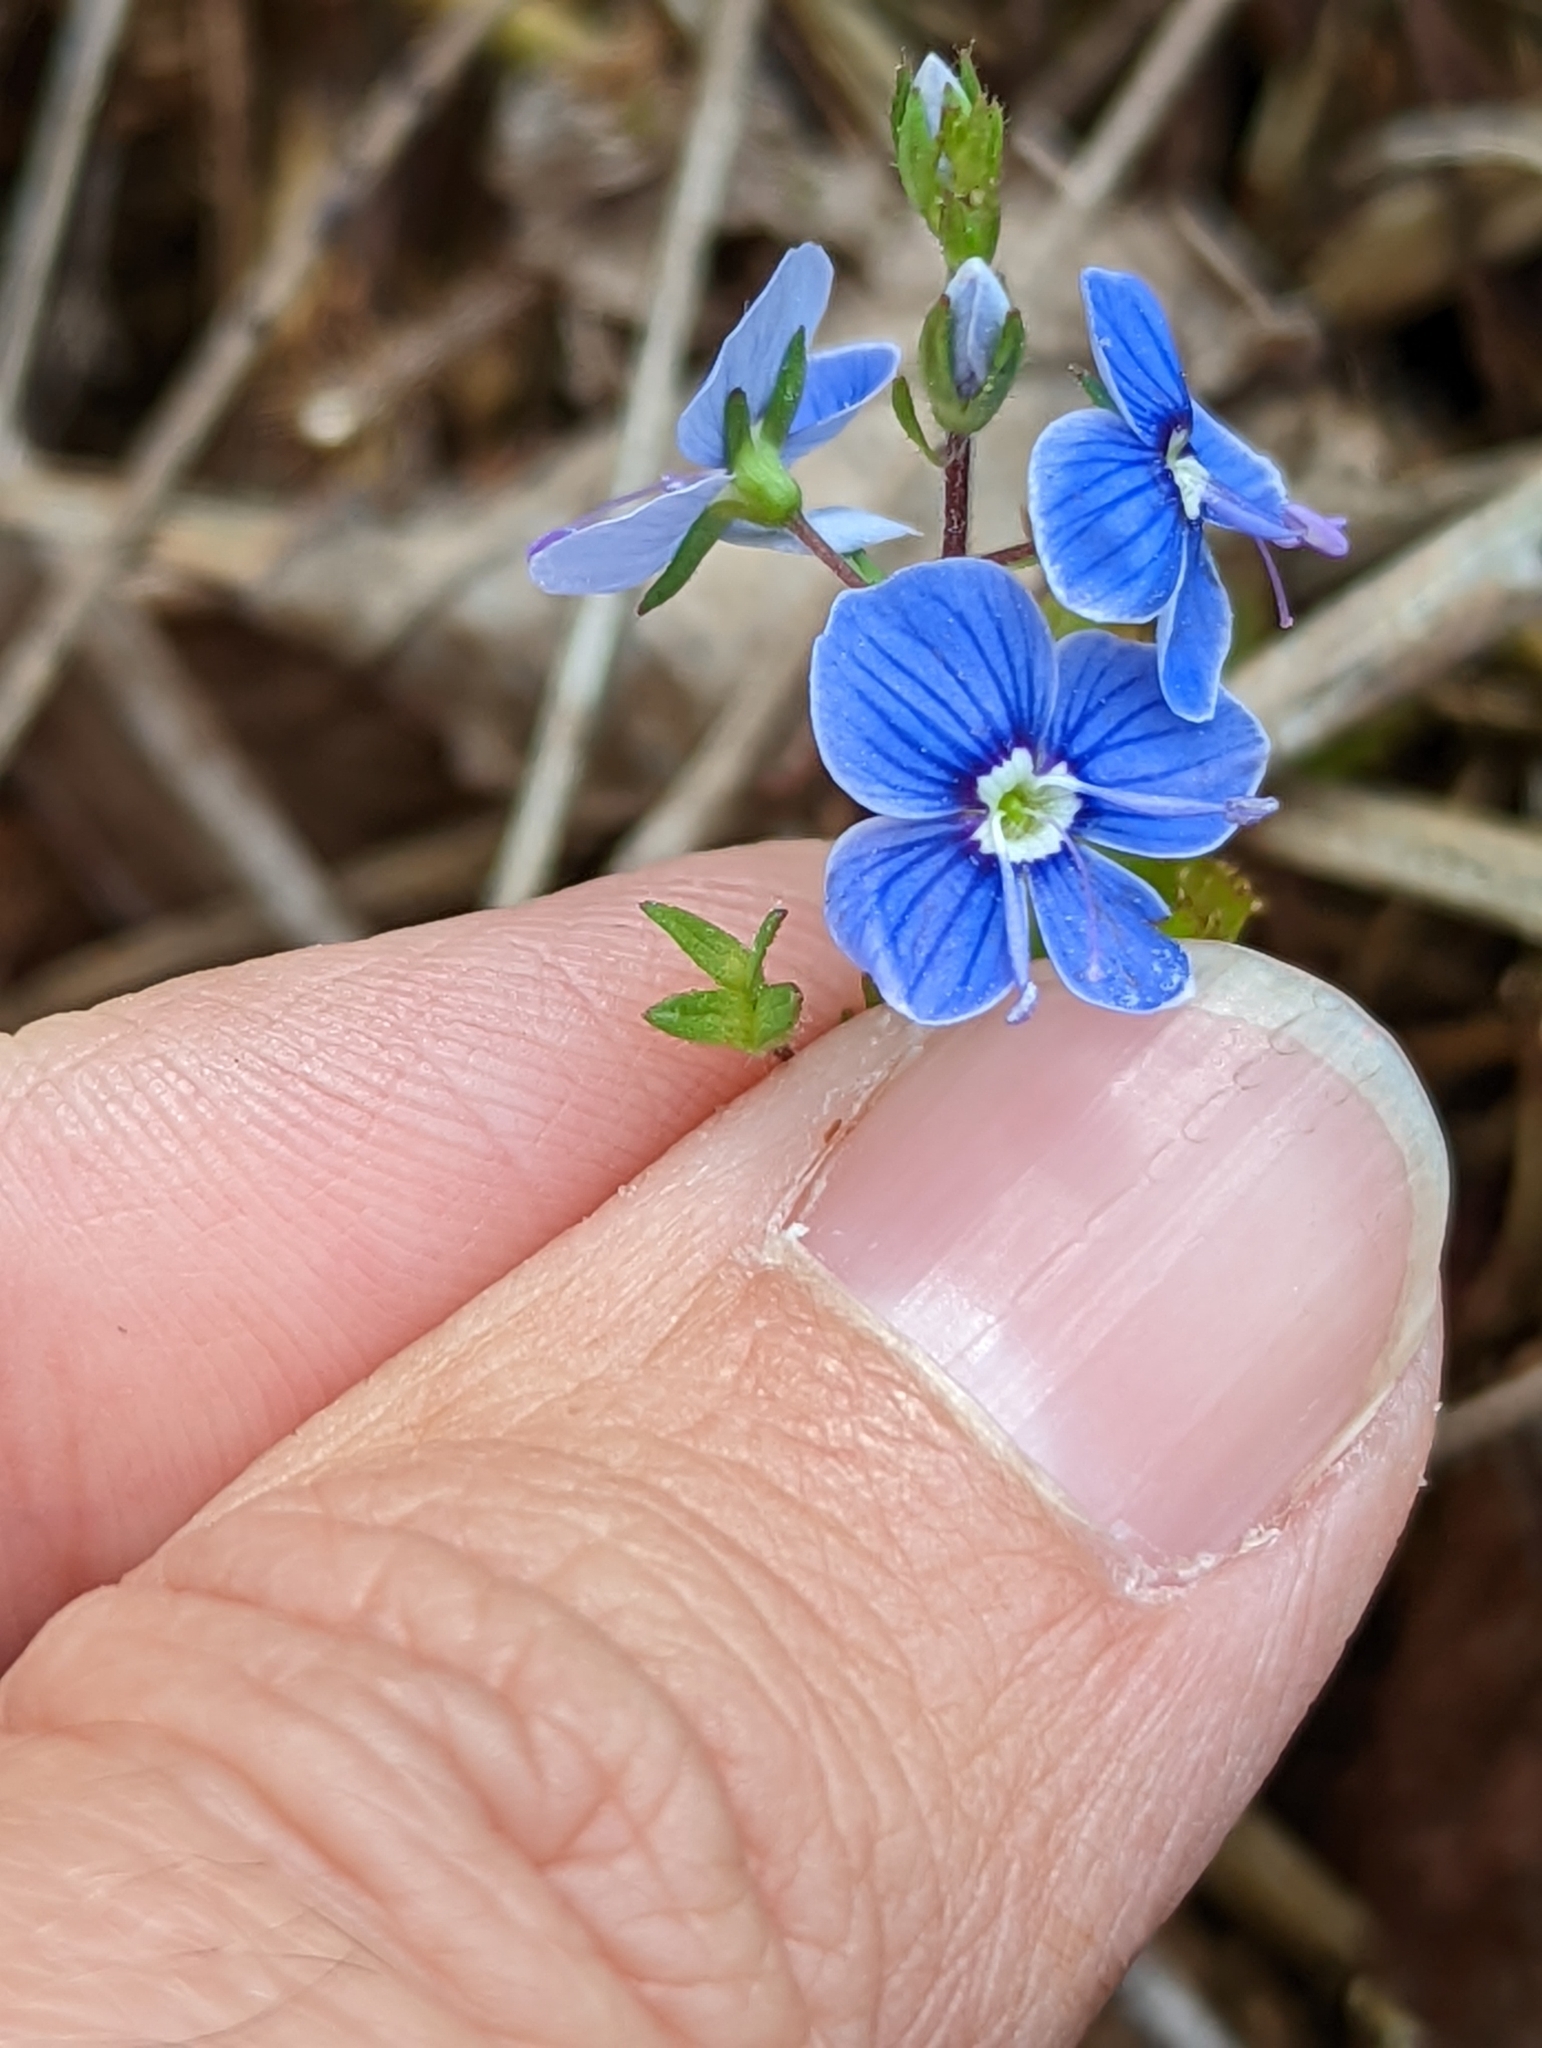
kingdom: Plantae
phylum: Tracheophyta
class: Magnoliopsida
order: Lamiales
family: Plantaginaceae
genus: Veronica
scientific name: Veronica chamaedrys
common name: Germander speedwell
